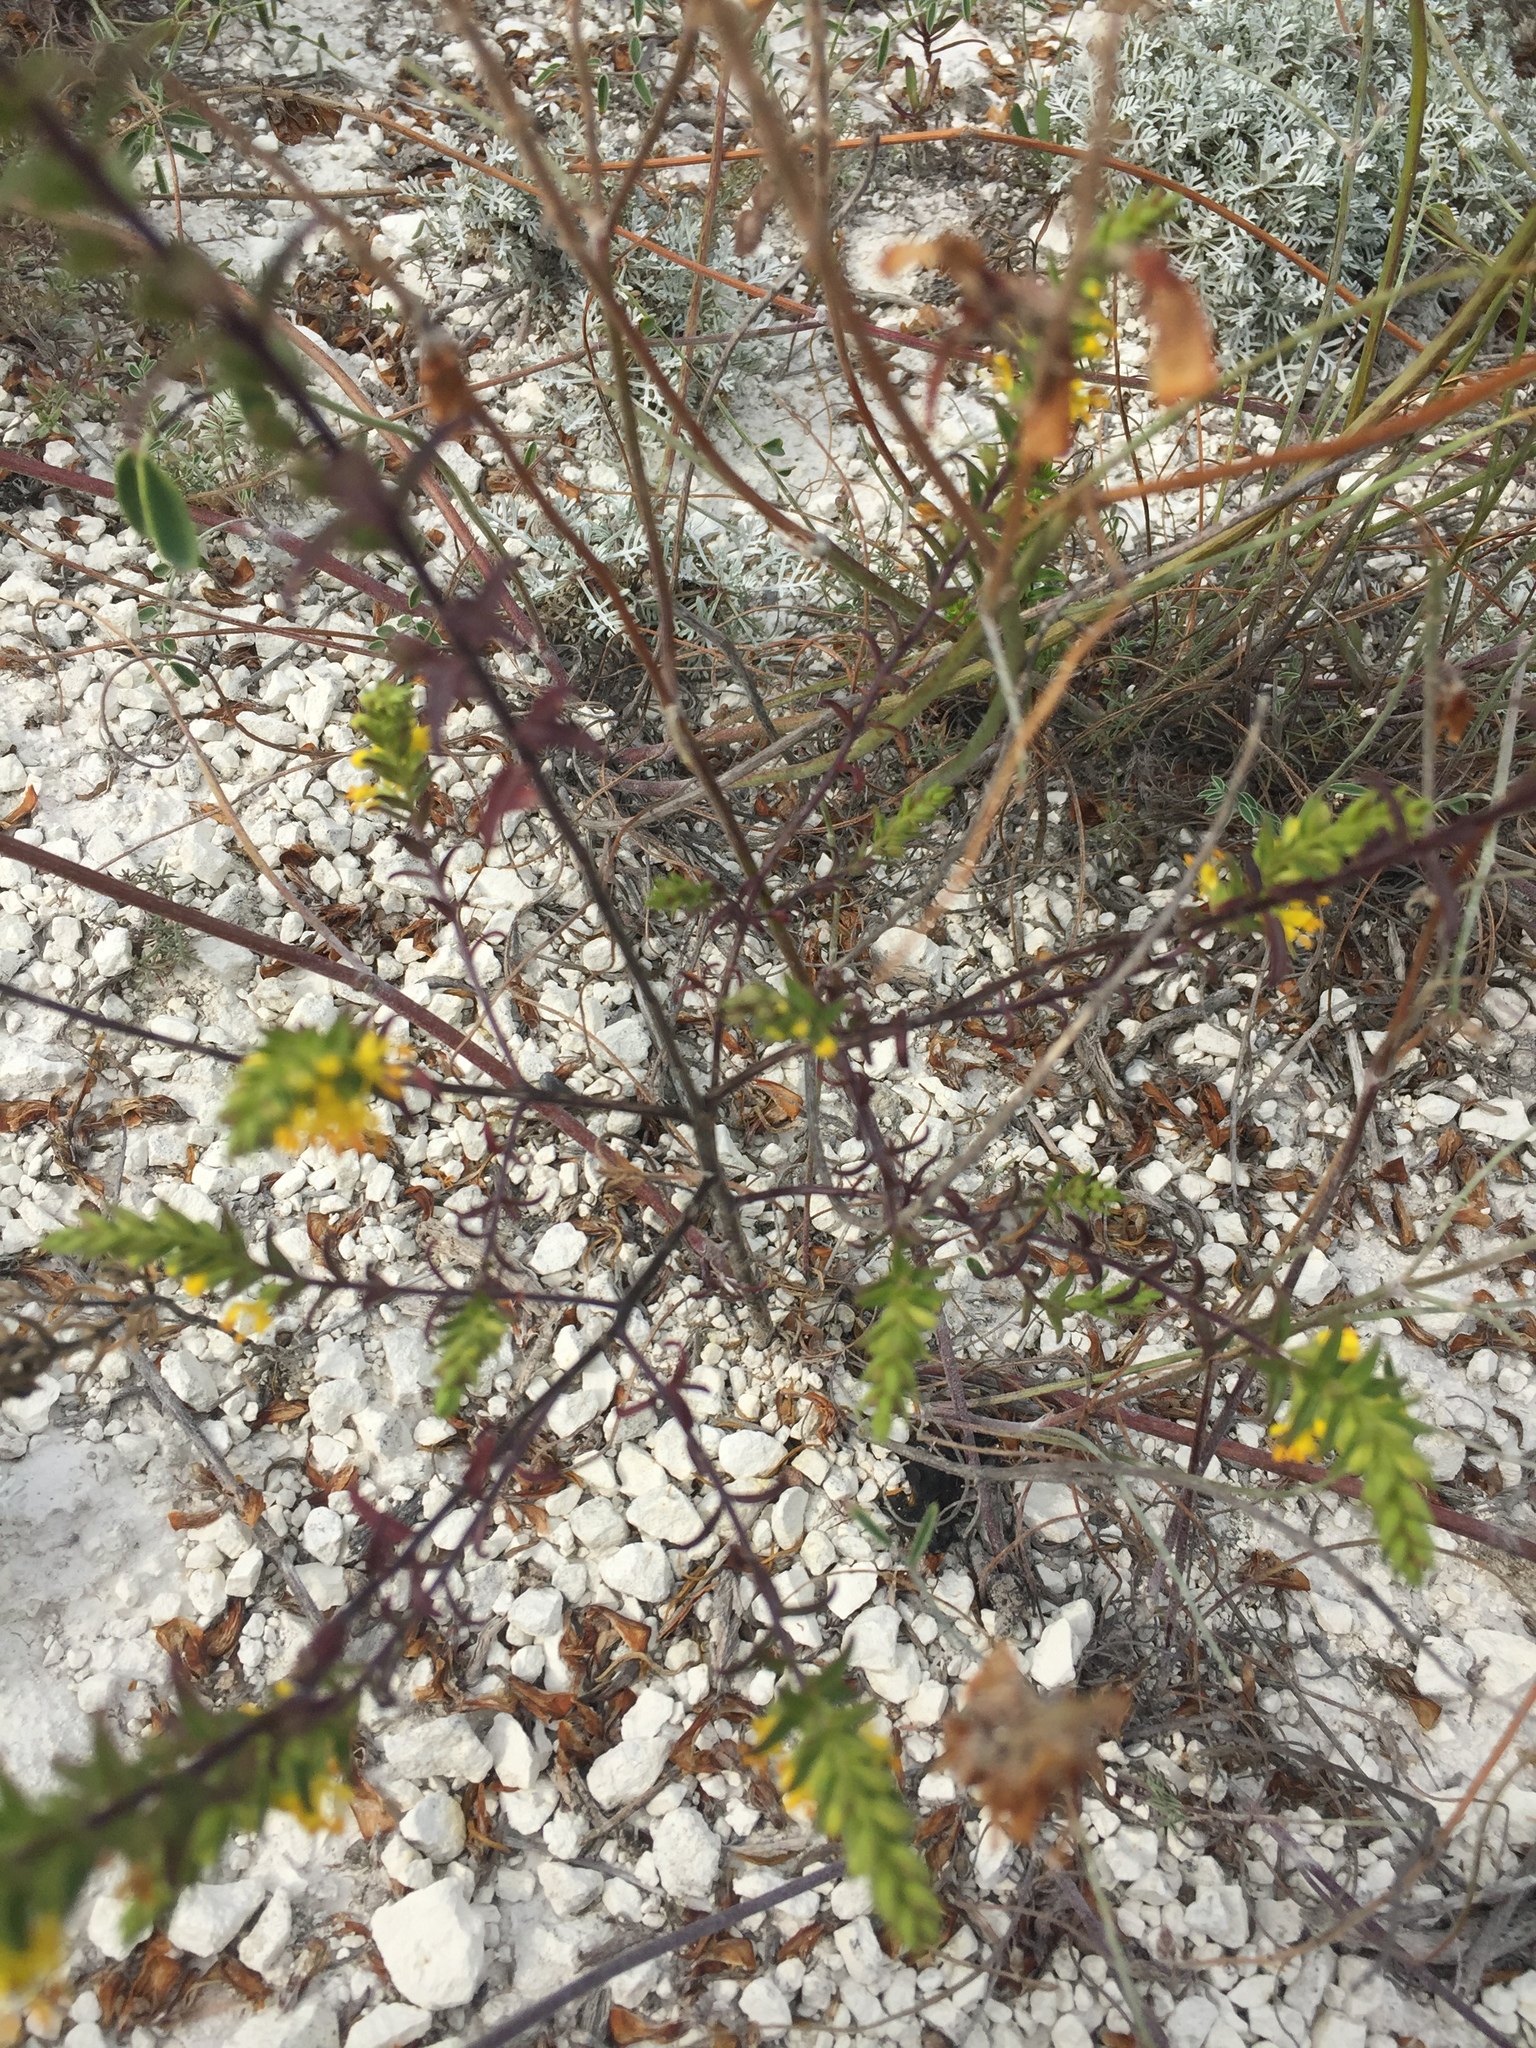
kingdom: Plantae
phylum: Tracheophyta
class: Magnoliopsida
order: Lamiales
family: Orobanchaceae
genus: Odontites
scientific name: Odontites luteus
